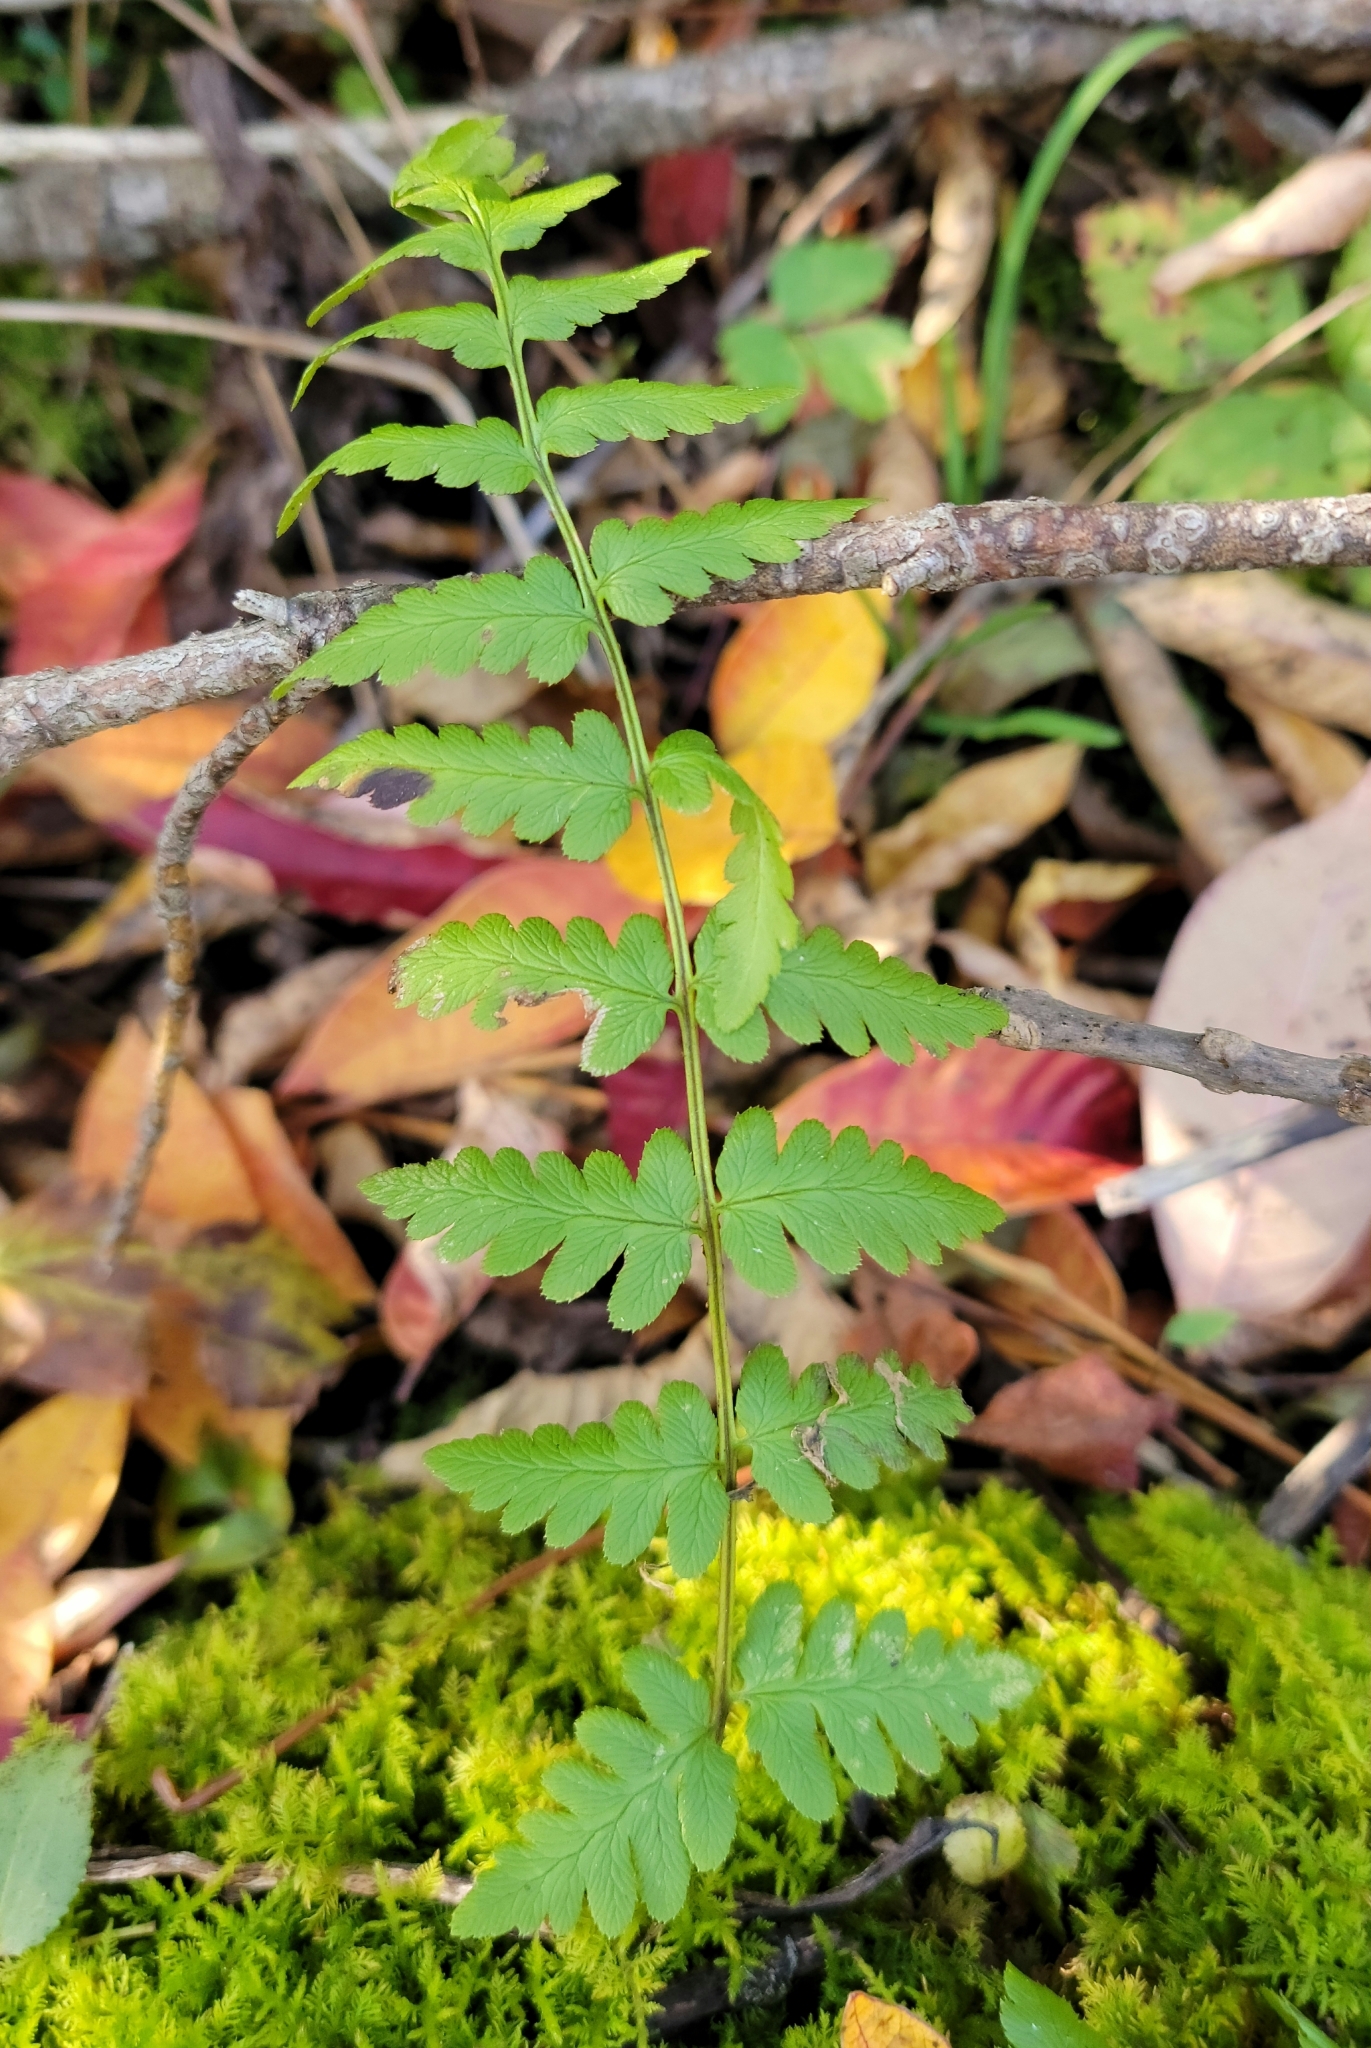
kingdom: Plantae
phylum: Tracheophyta
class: Polypodiopsida
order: Polypodiales
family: Dryopteridaceae
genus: Dryopteris
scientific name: Dryopteris cristata
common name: Crested wood fern
